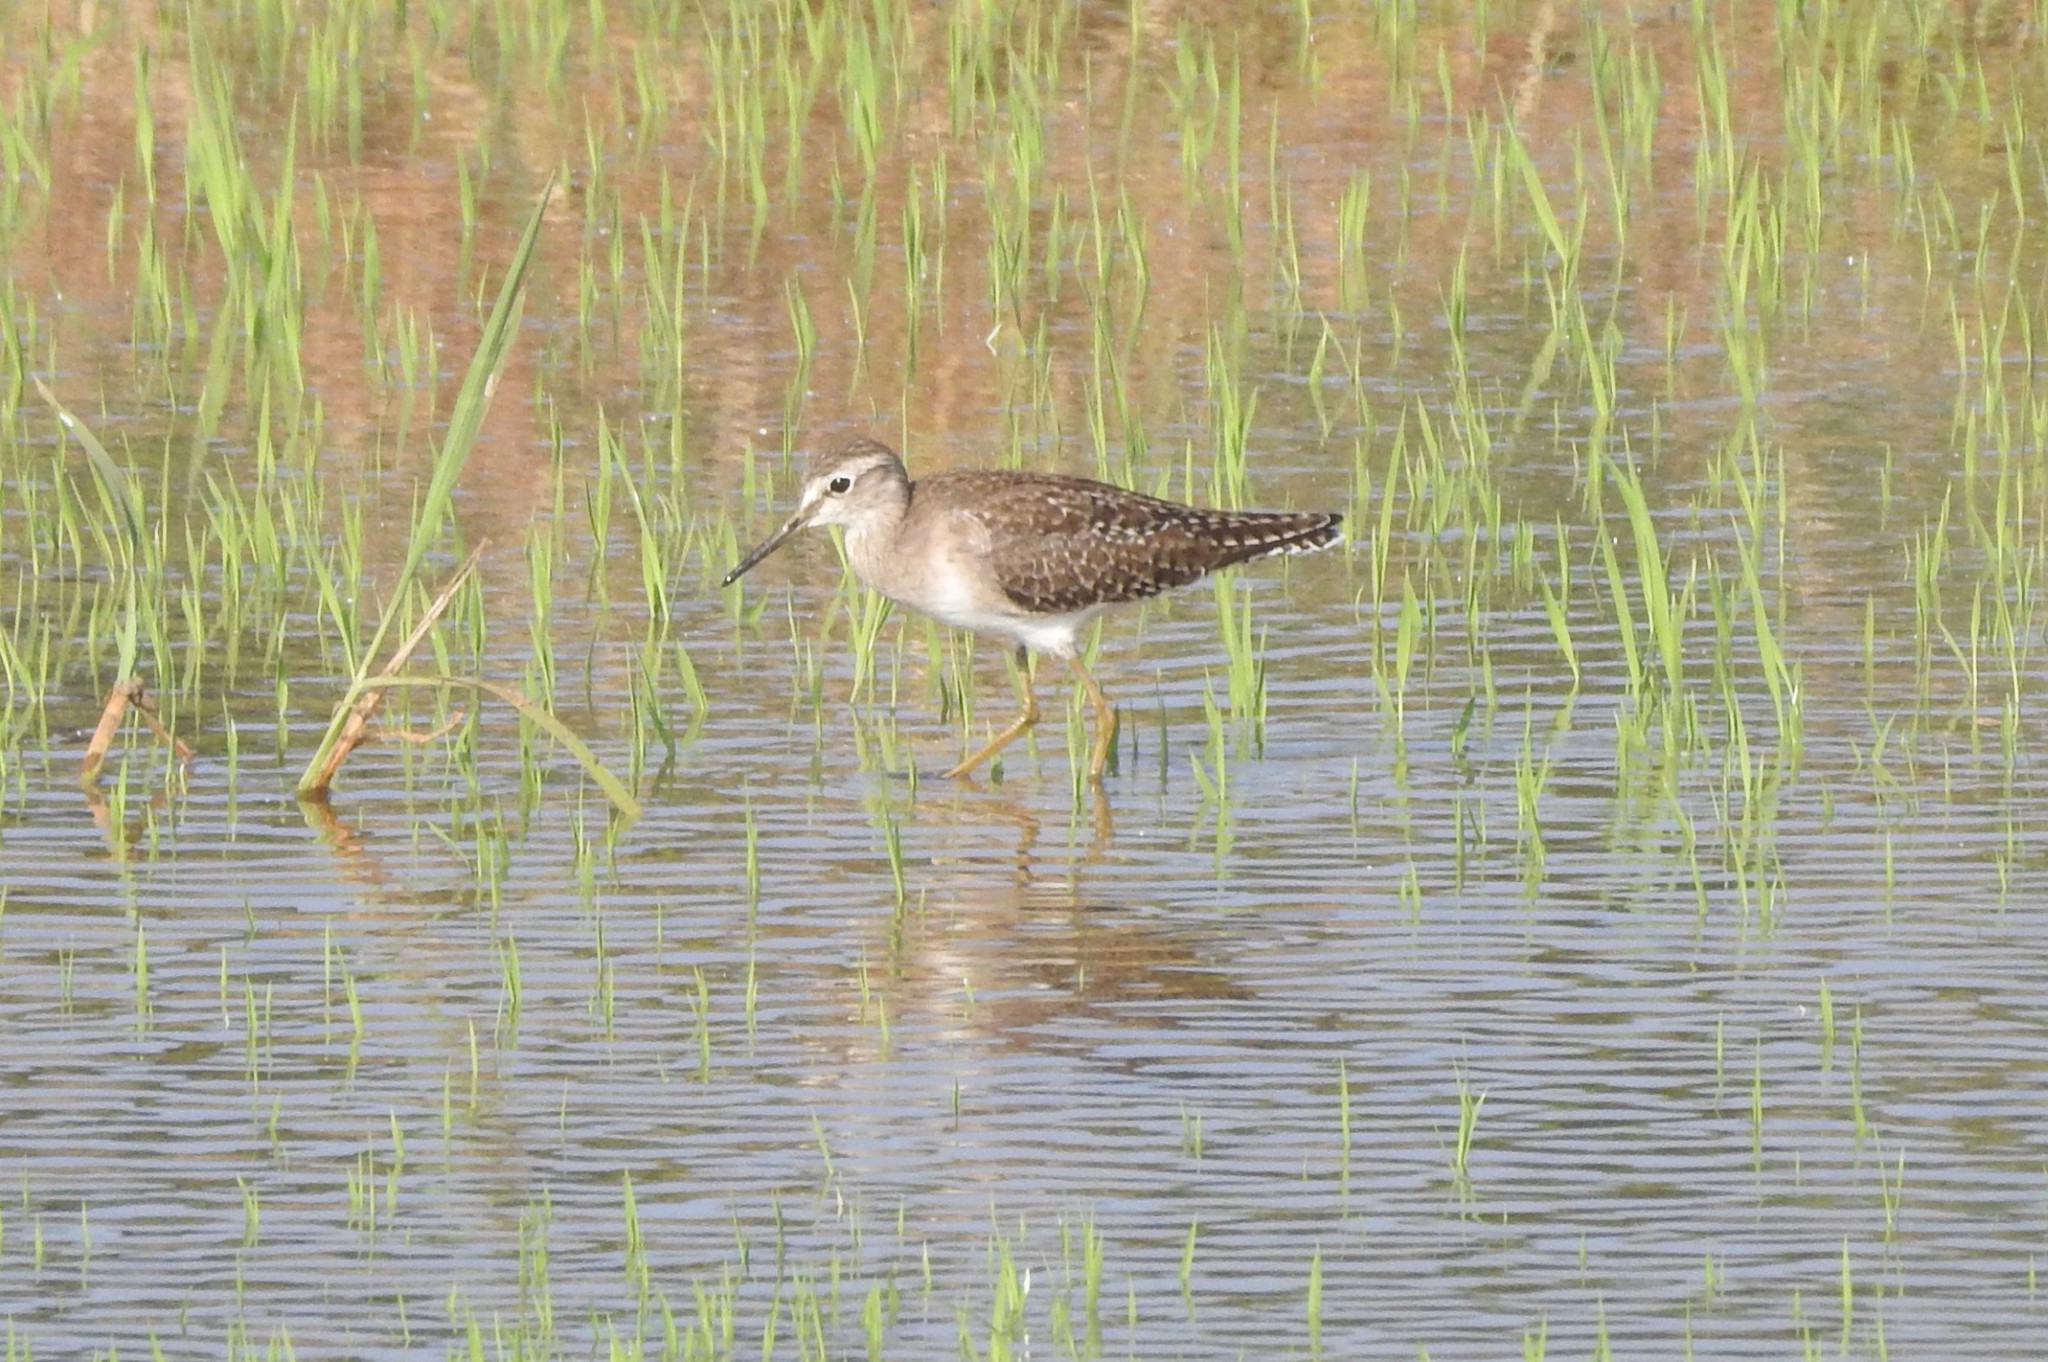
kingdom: Animalia
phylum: Chordata
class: Aves
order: Charadriiformes
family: Scolopacidae
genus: Tringa
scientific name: Tringa glareola
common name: Wood sandpiper
